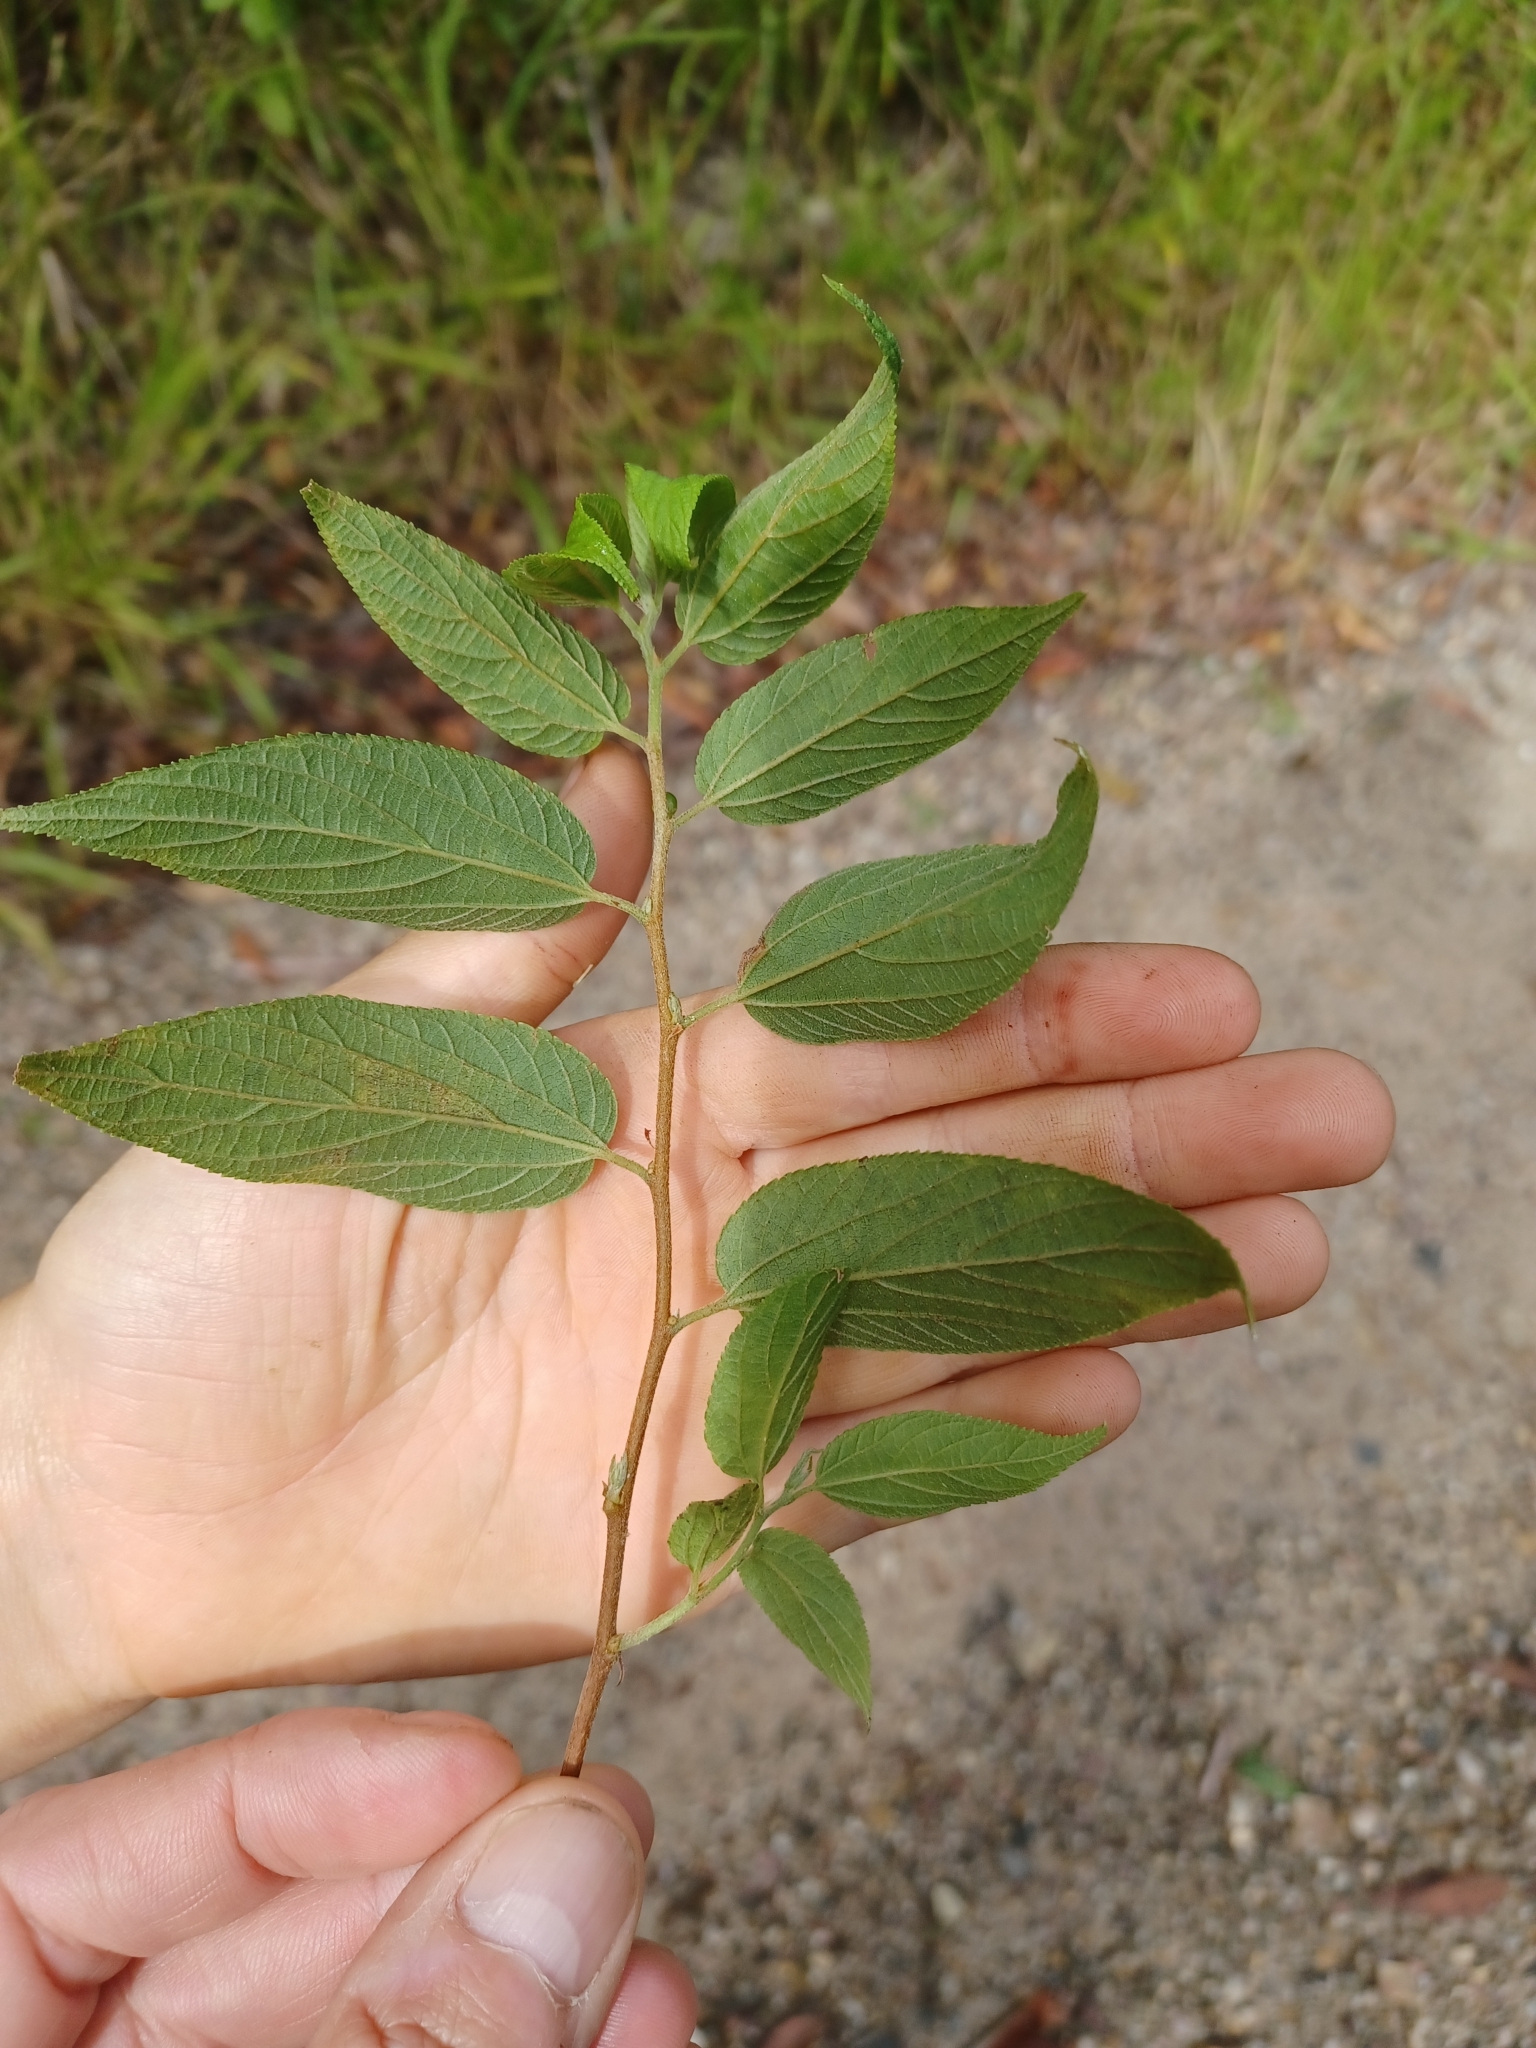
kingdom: Plantae
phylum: Tracheophyta
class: Magnoliopsida
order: Rosales
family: Cannabaceae
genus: Trema
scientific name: Trema tomentosum
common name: Peach-leaf-poisonbush
